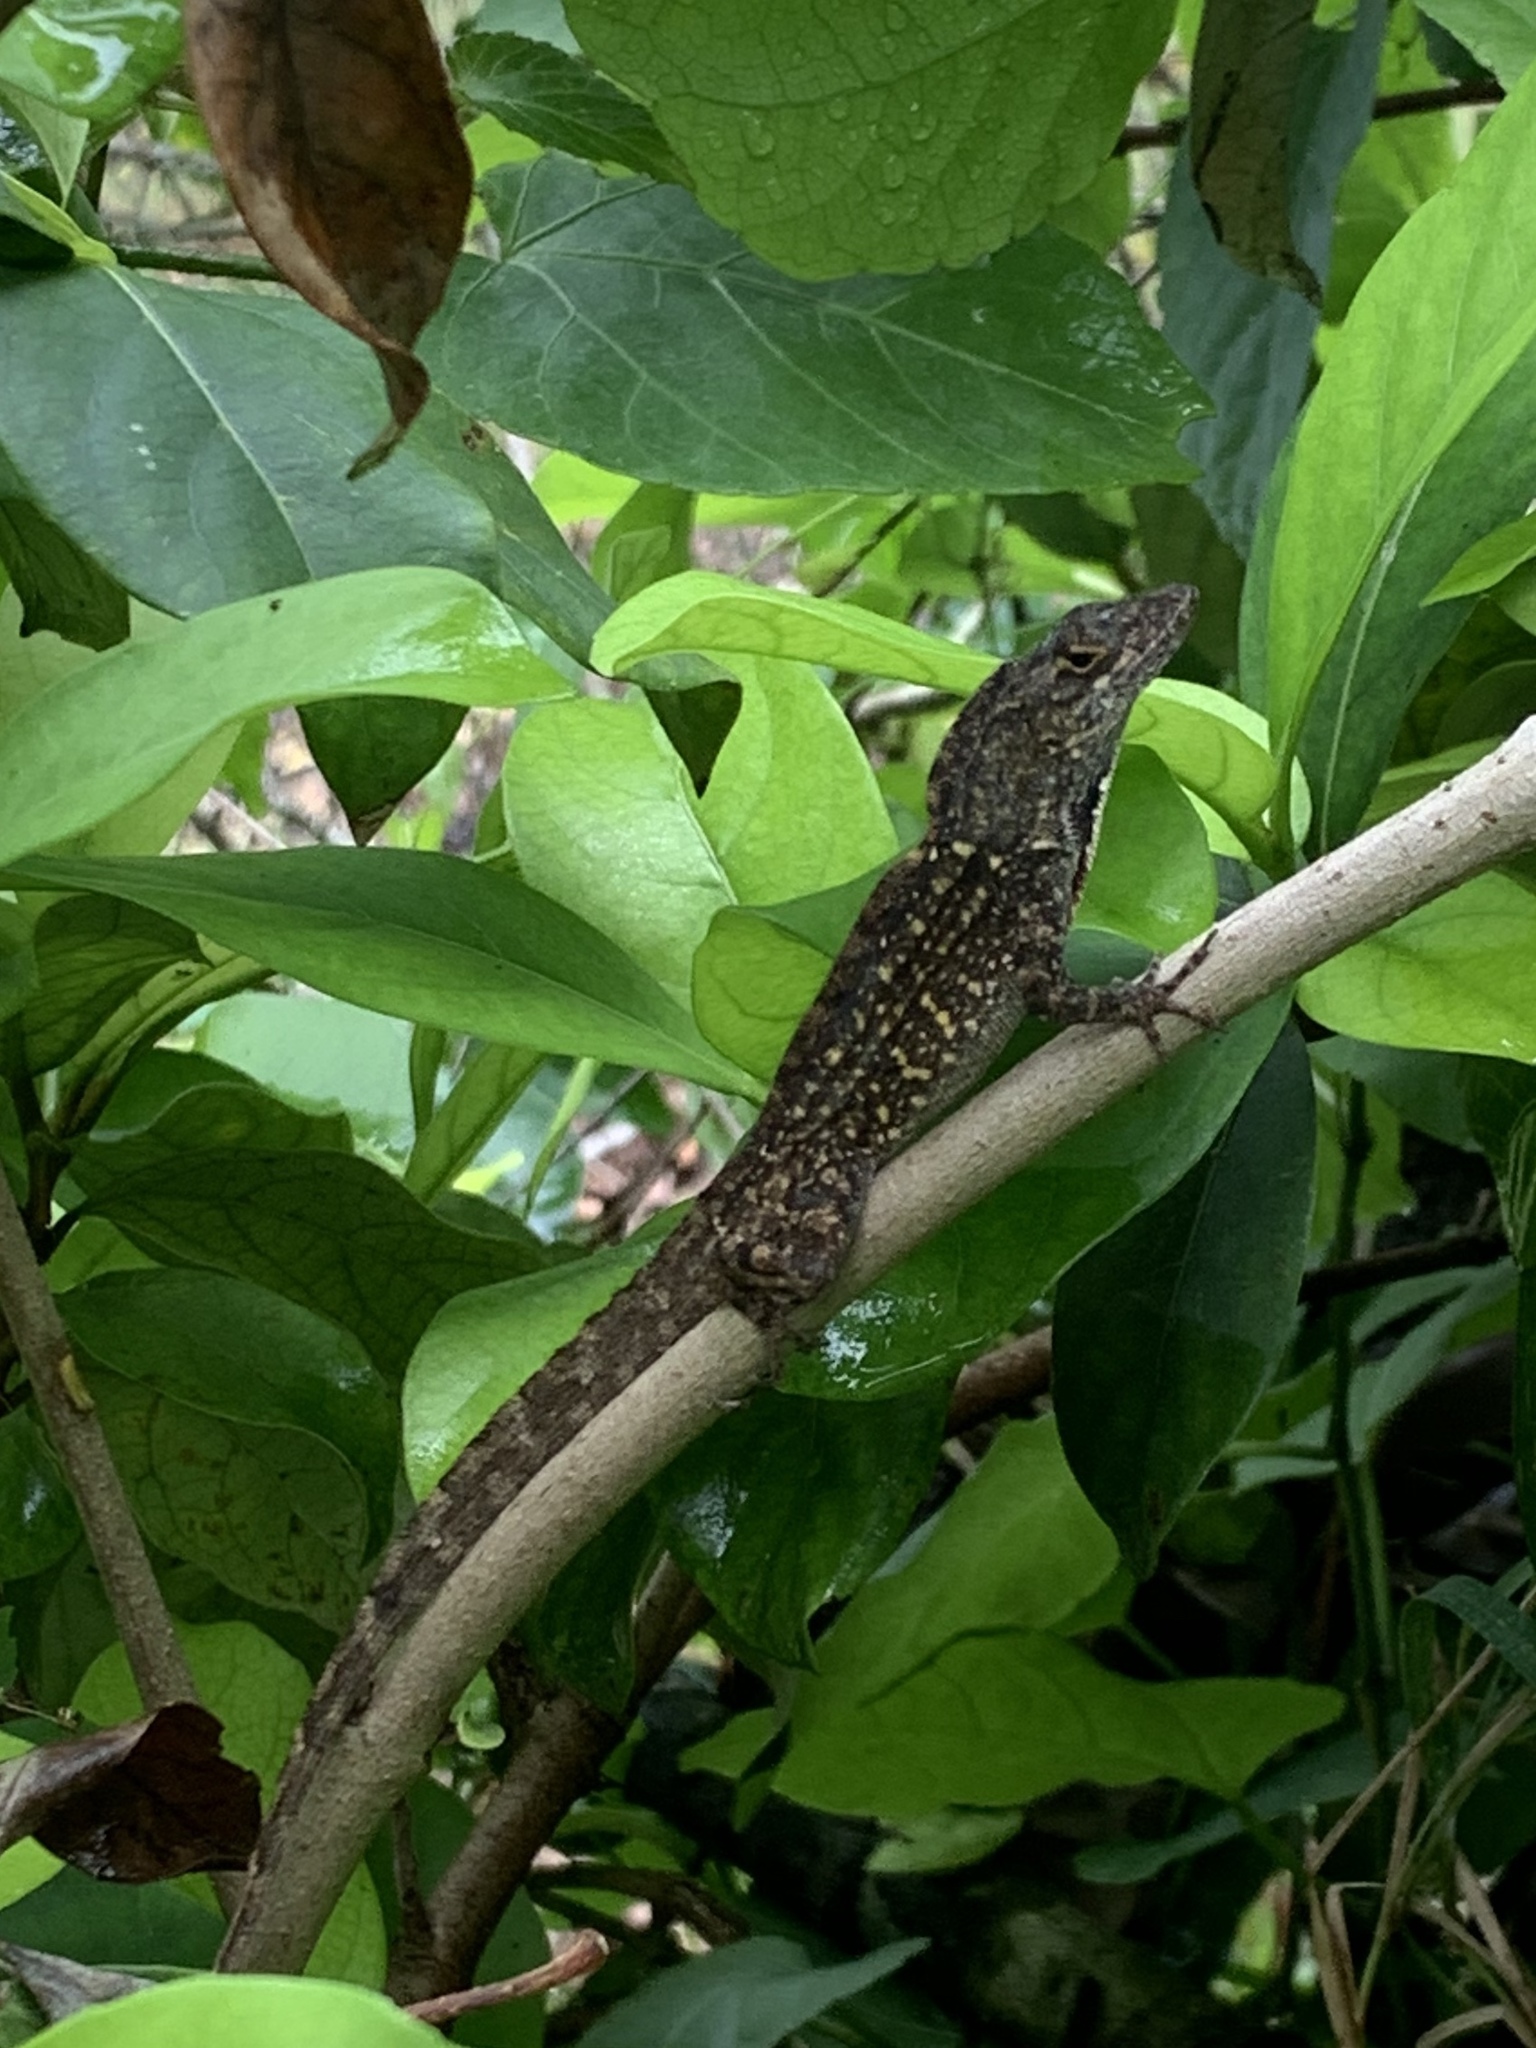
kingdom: Animalia
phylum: Chordata
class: Squamata
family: Dactyloidae
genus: Anolis
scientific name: Anolis sagrei
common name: Brown anole
